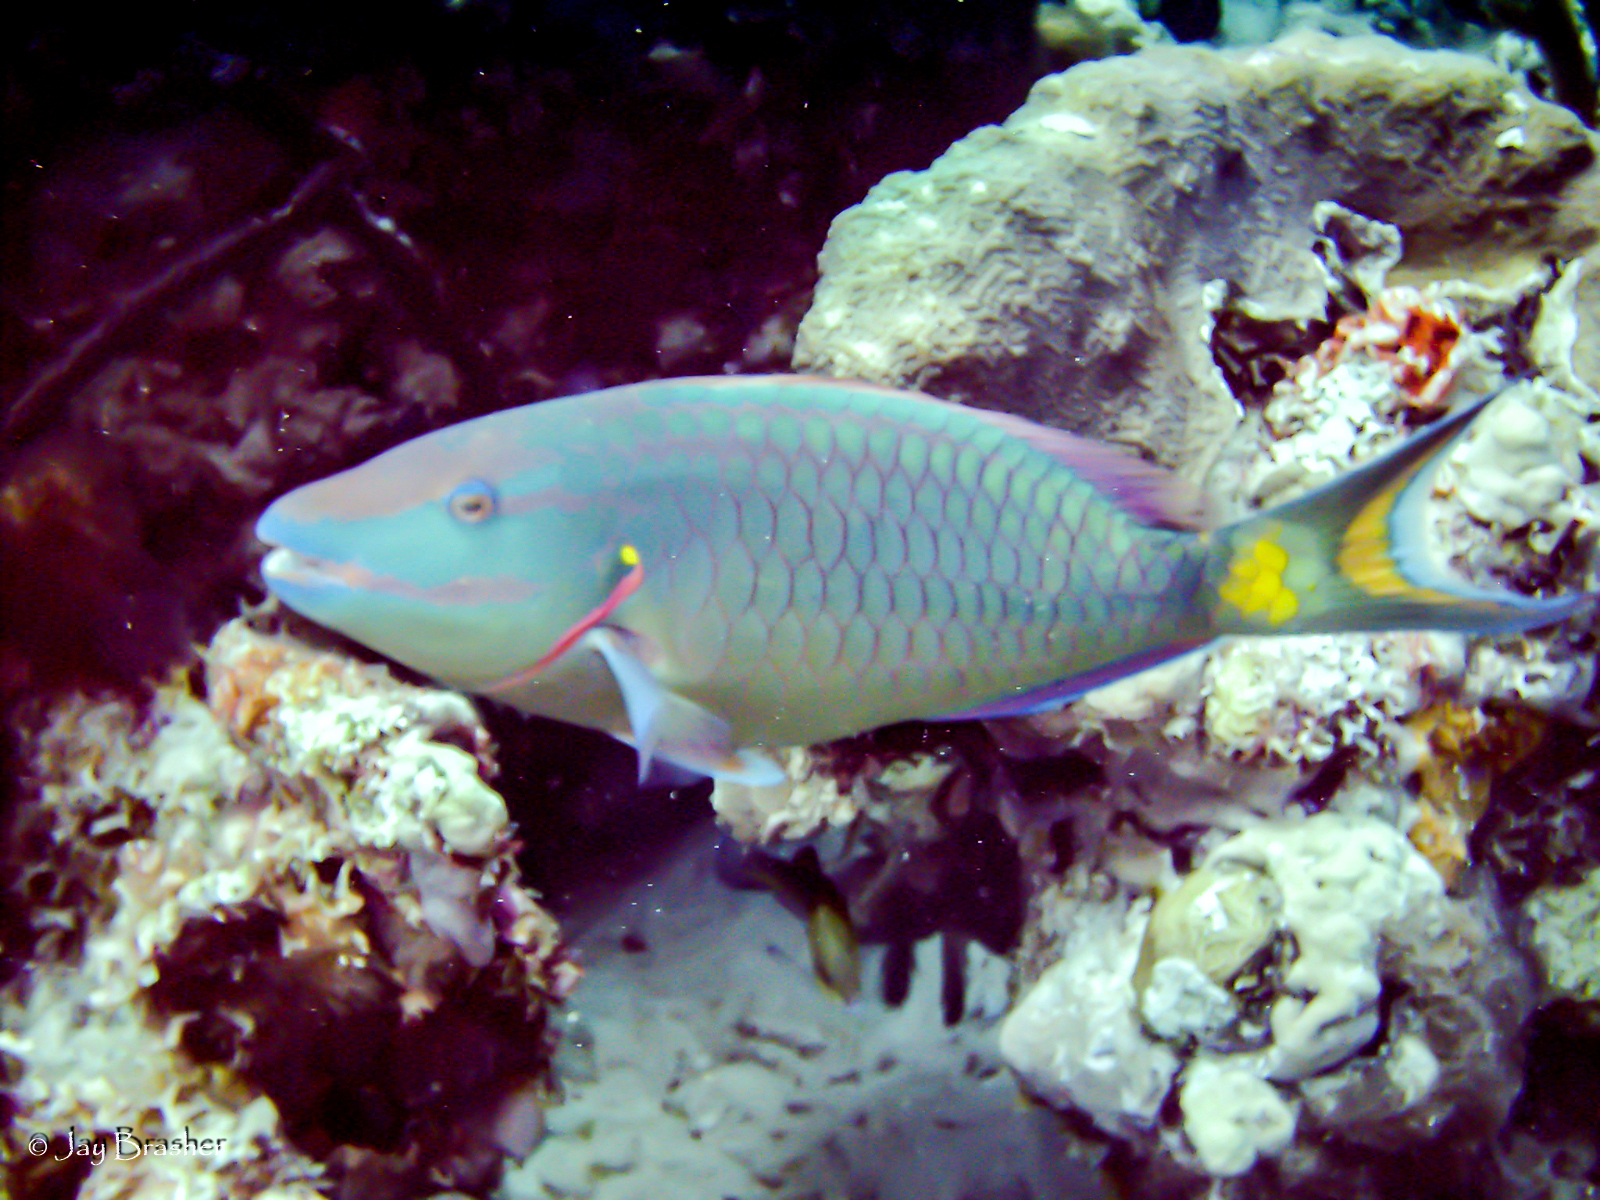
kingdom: Animalia
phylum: Chordata
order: Perciformes
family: Scaridae
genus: Sparisoma
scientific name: Sparisoma viride
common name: Stoplight parrotfish
